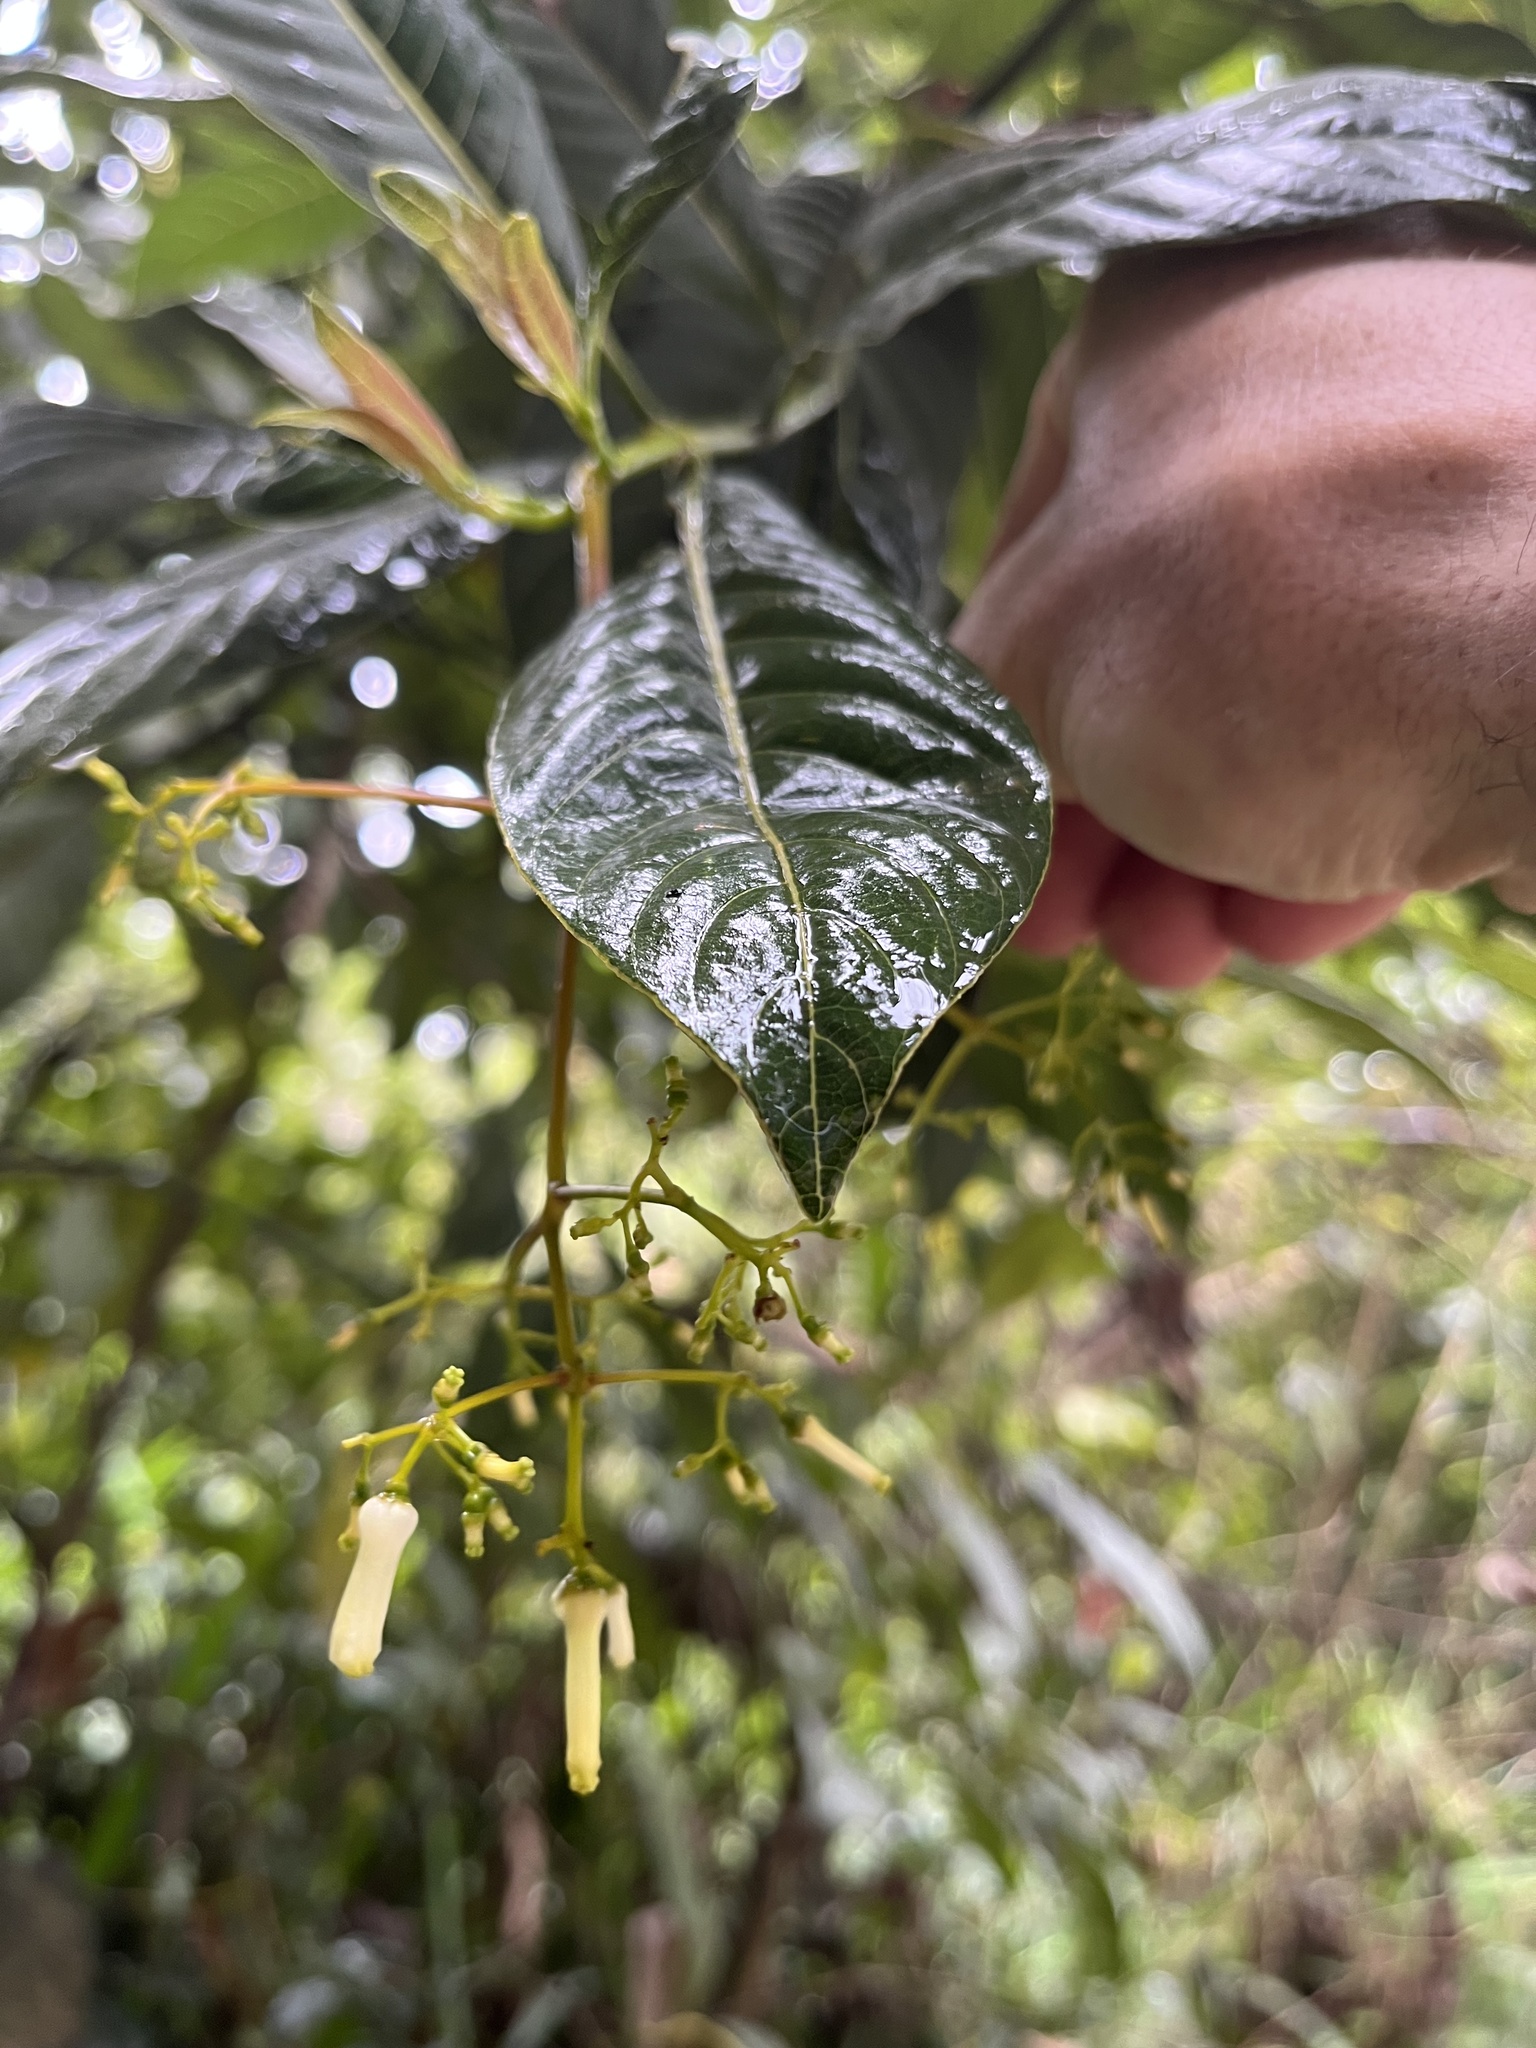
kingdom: Plantae
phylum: Tracheophyta
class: Magnoliopsida
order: Gentianales
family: Rubiaceae
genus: Palicourea
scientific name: Palicourea paniculata
